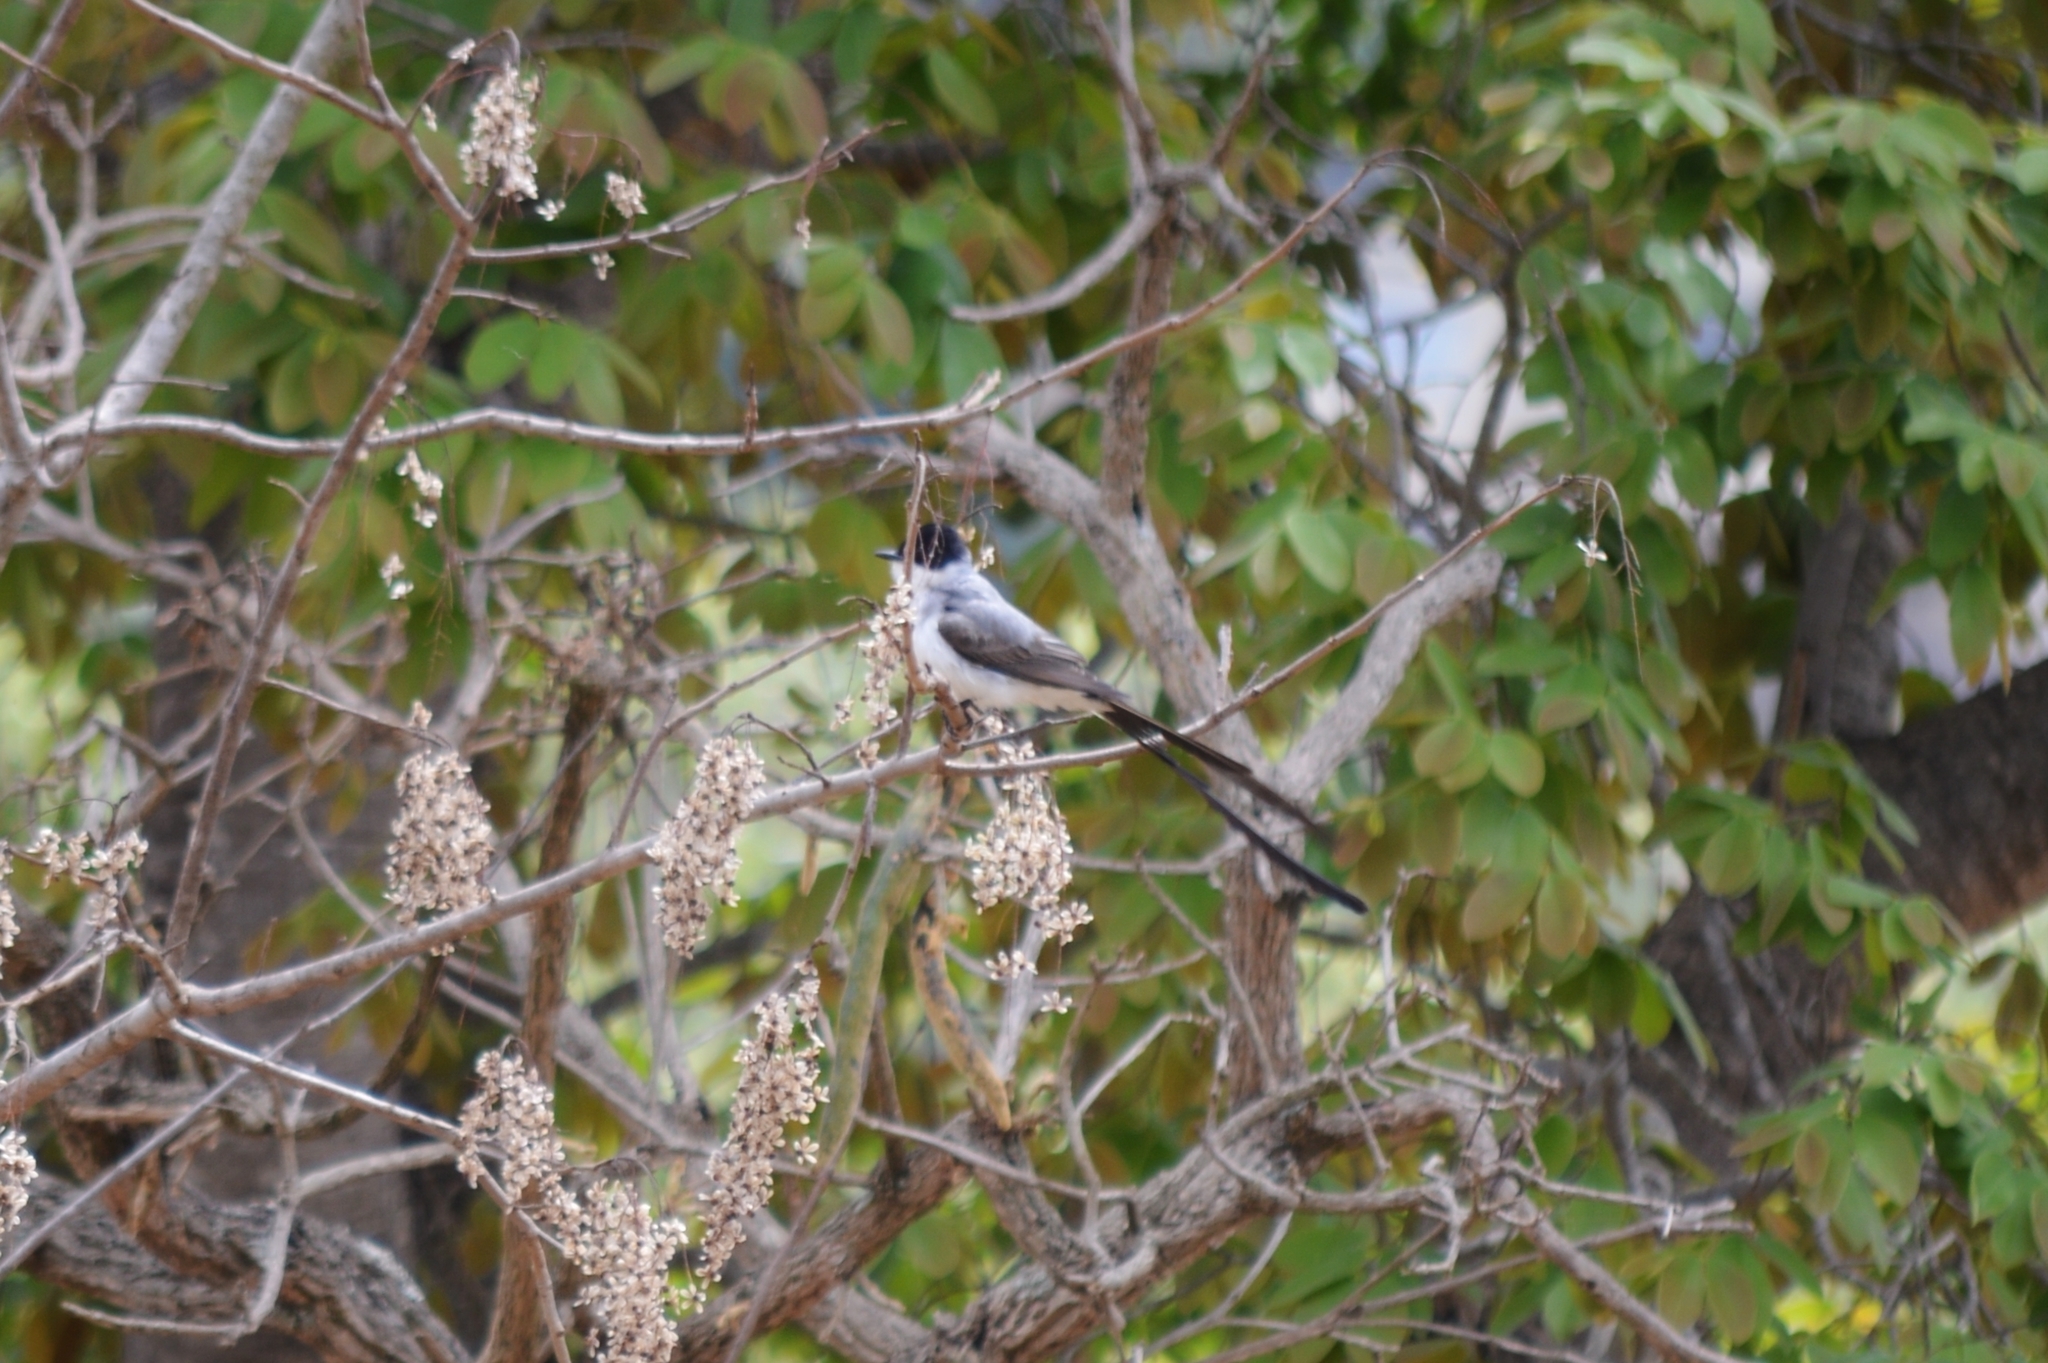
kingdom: Animalia
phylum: Chordata
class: Aves
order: Passeriformes
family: Tyrannidae
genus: Tyrannus
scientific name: Tyrannus savana
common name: Fork-tailed flycatcher
